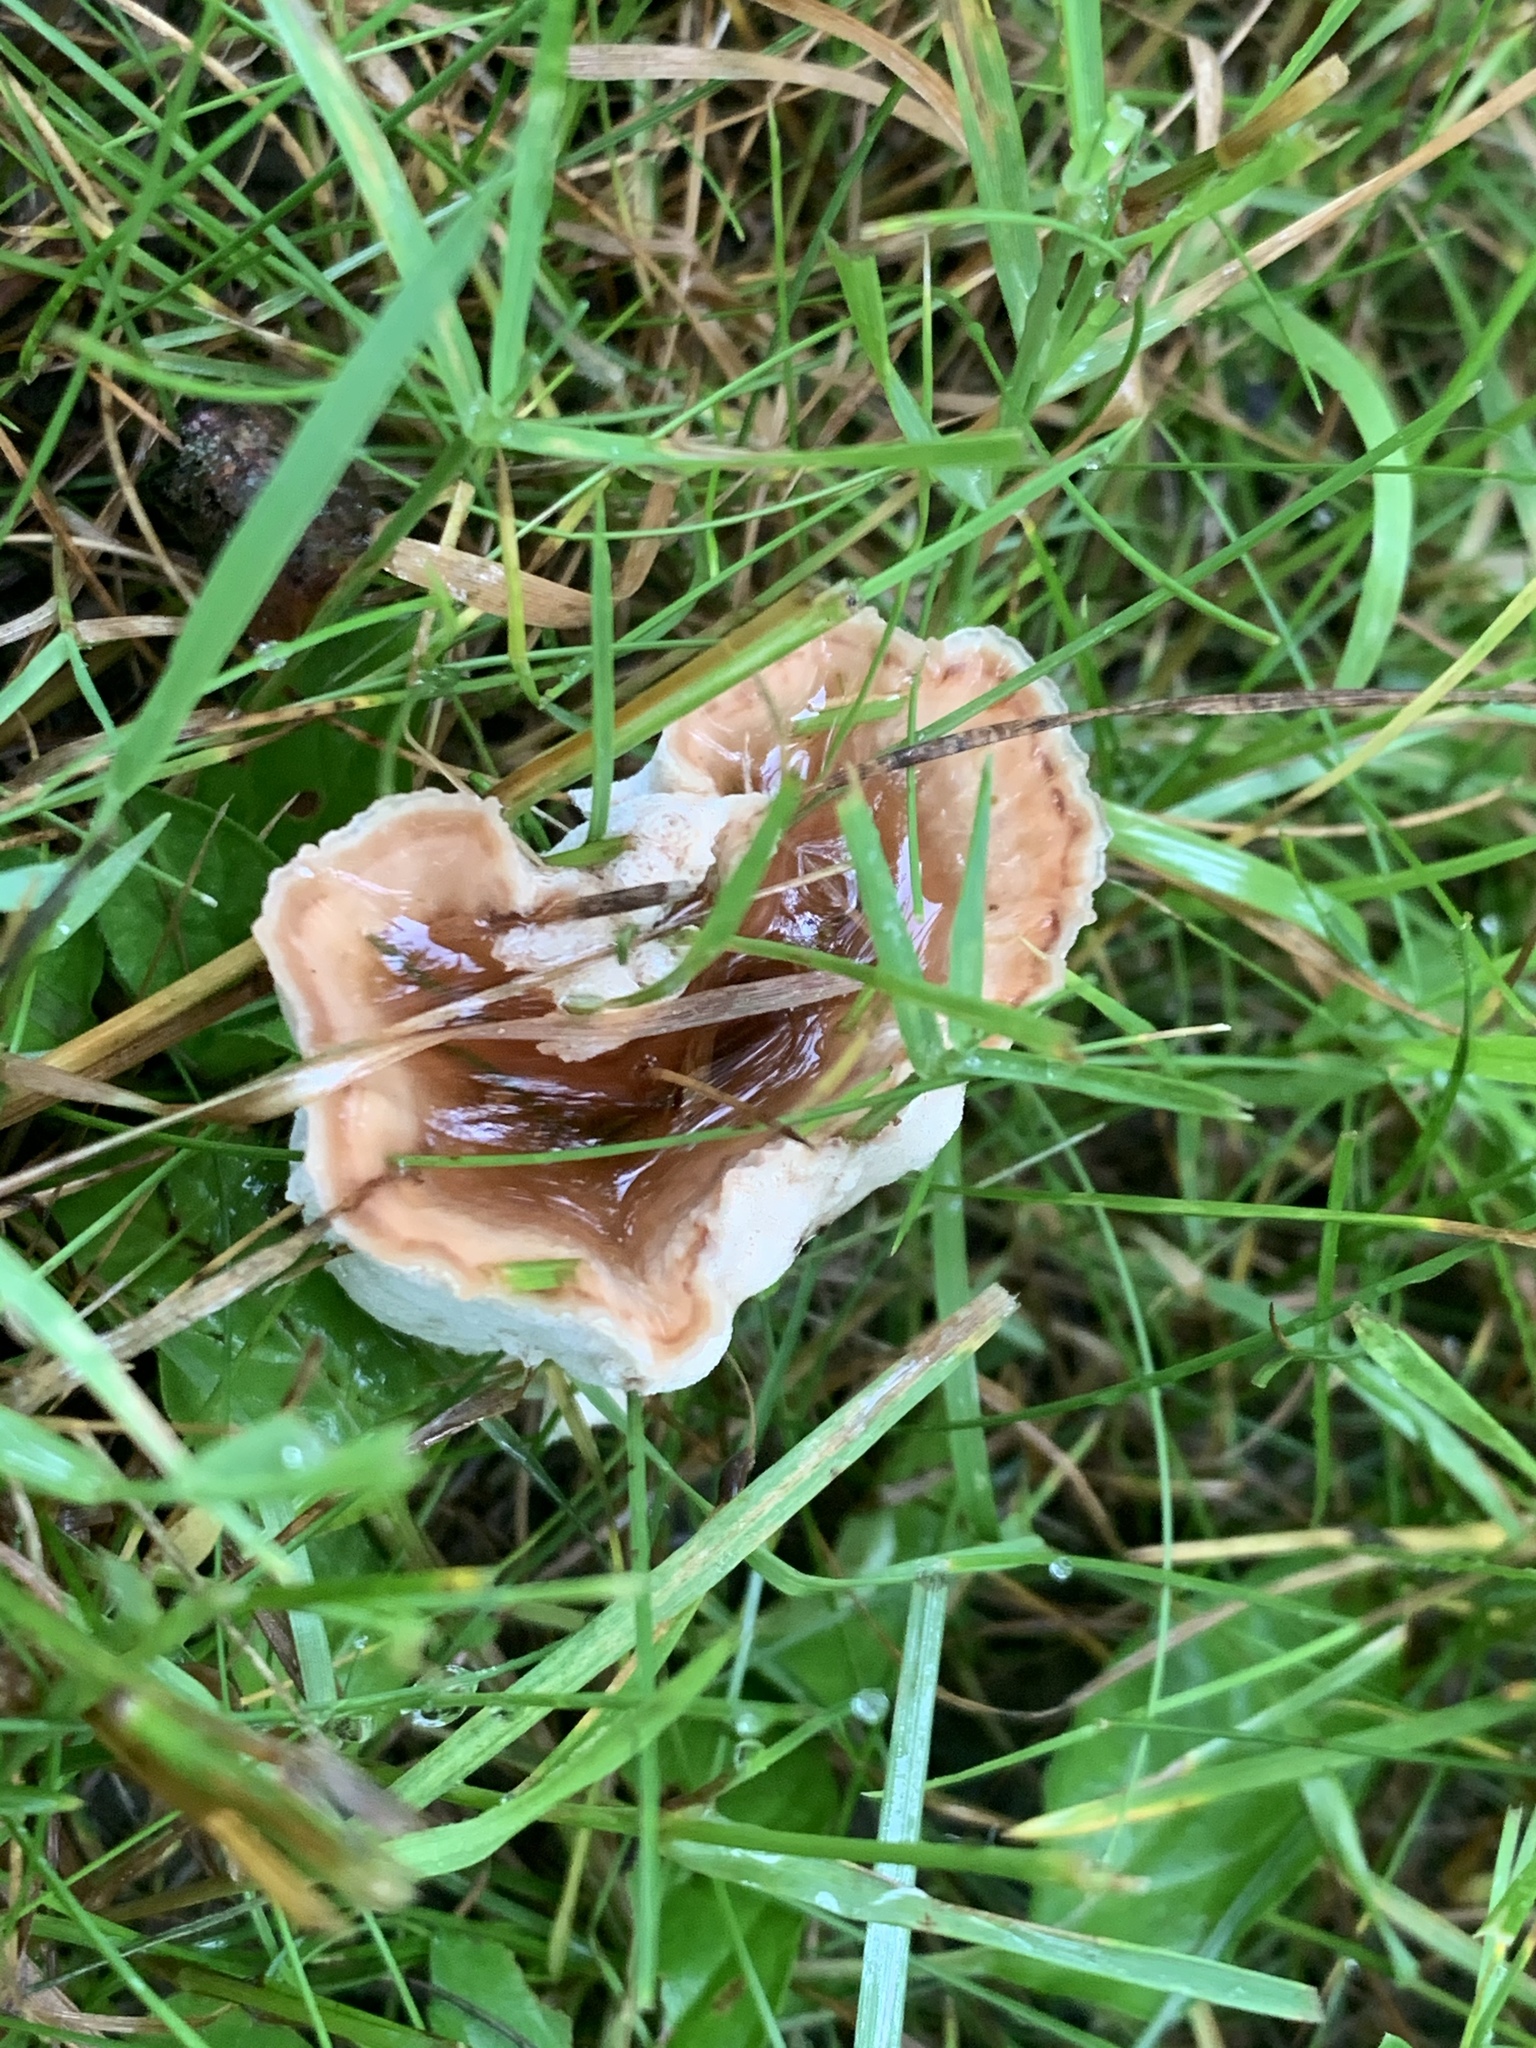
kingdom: Fungi
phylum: Basidiomycota
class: Agaricomycetes
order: Polyporales
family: Podoscyphaceae
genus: Abortiporus
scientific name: Abortiporus biennis
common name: Blushing rosette
